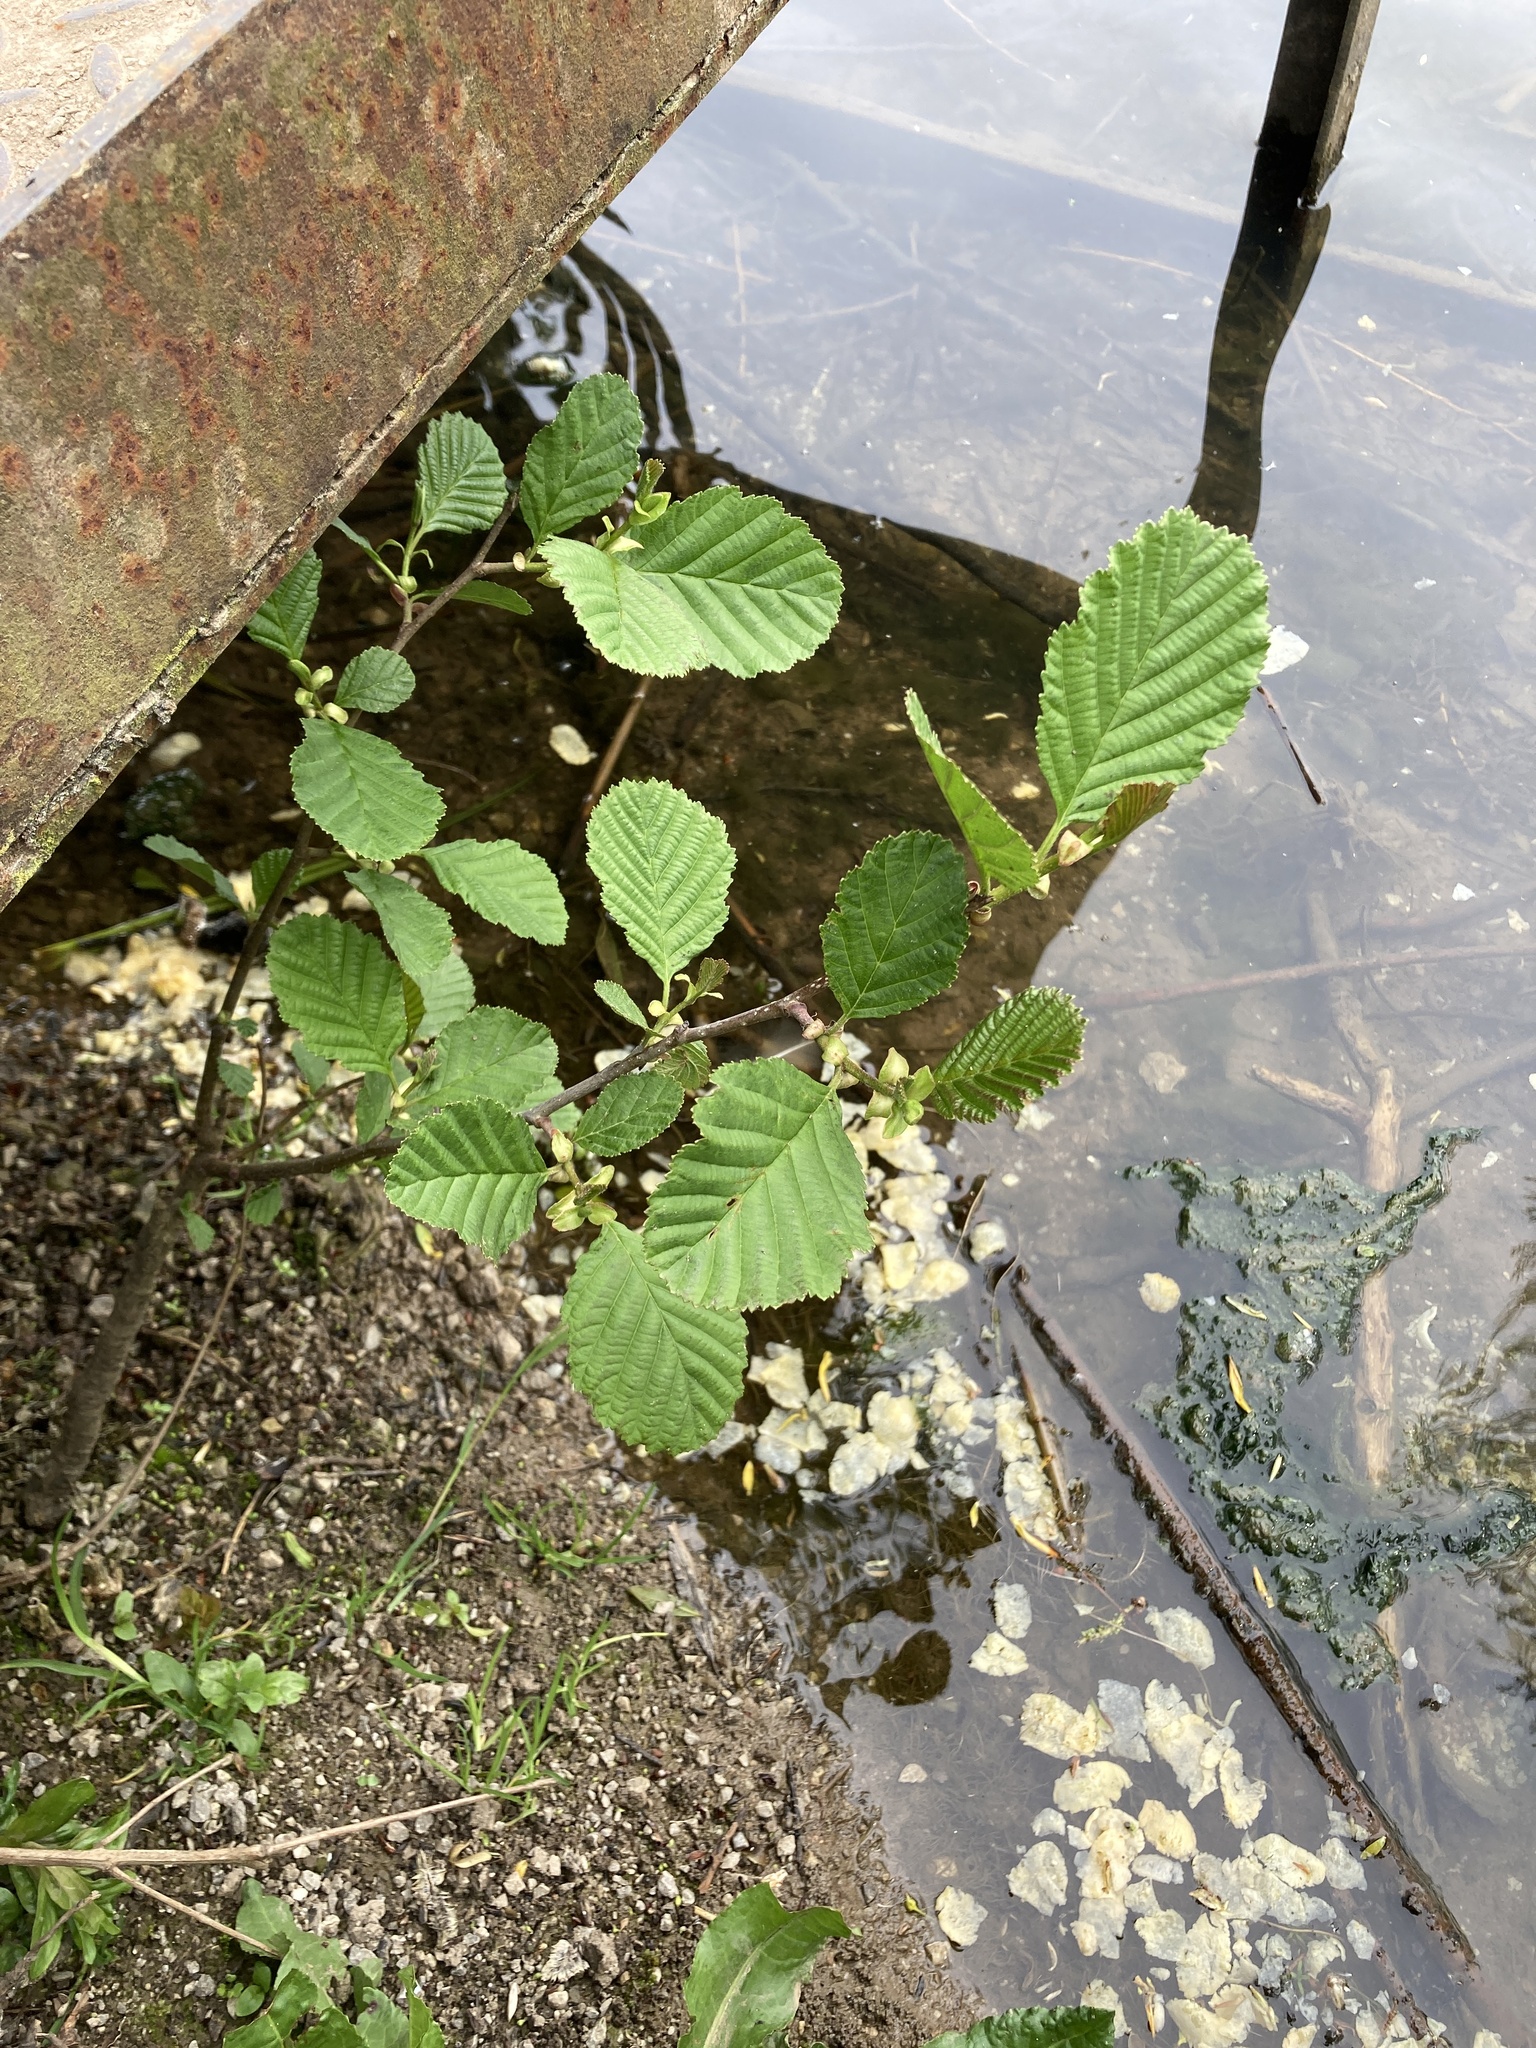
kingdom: Plantae
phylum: Tracheophyta
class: Magnoliopsida
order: Fagales
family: Betulaceae
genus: Alnus
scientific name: Alnus glutinosa
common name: Black alder
